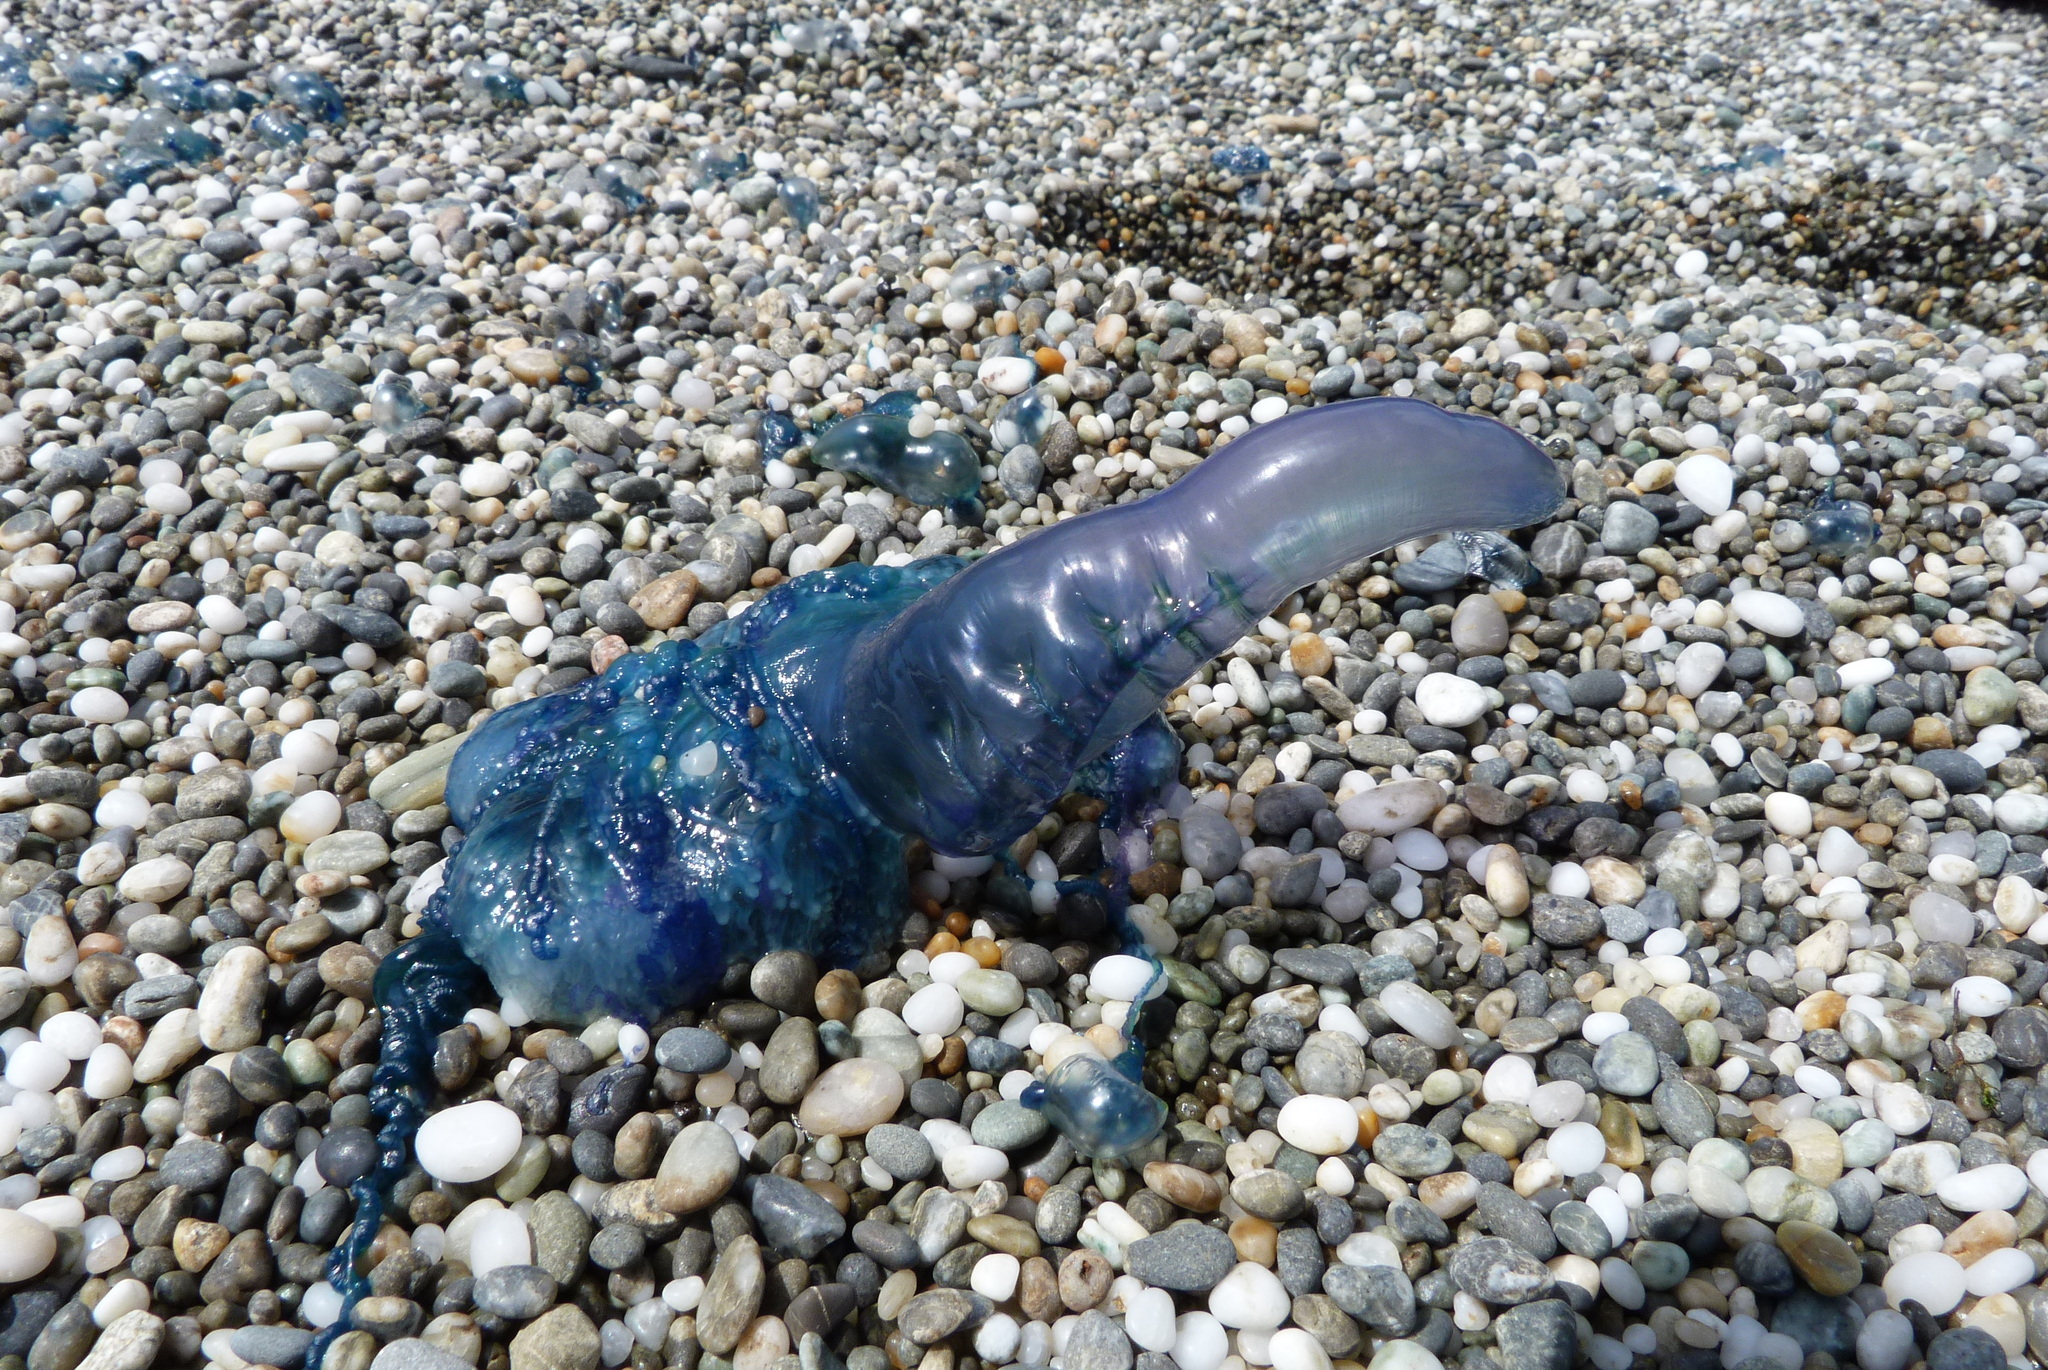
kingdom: Animalia
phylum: Cnidaria
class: Hydrozoa
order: Siphonophorae
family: Physaliidae
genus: Physalia
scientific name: Physalia physalis
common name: Portuguese man-of-war
